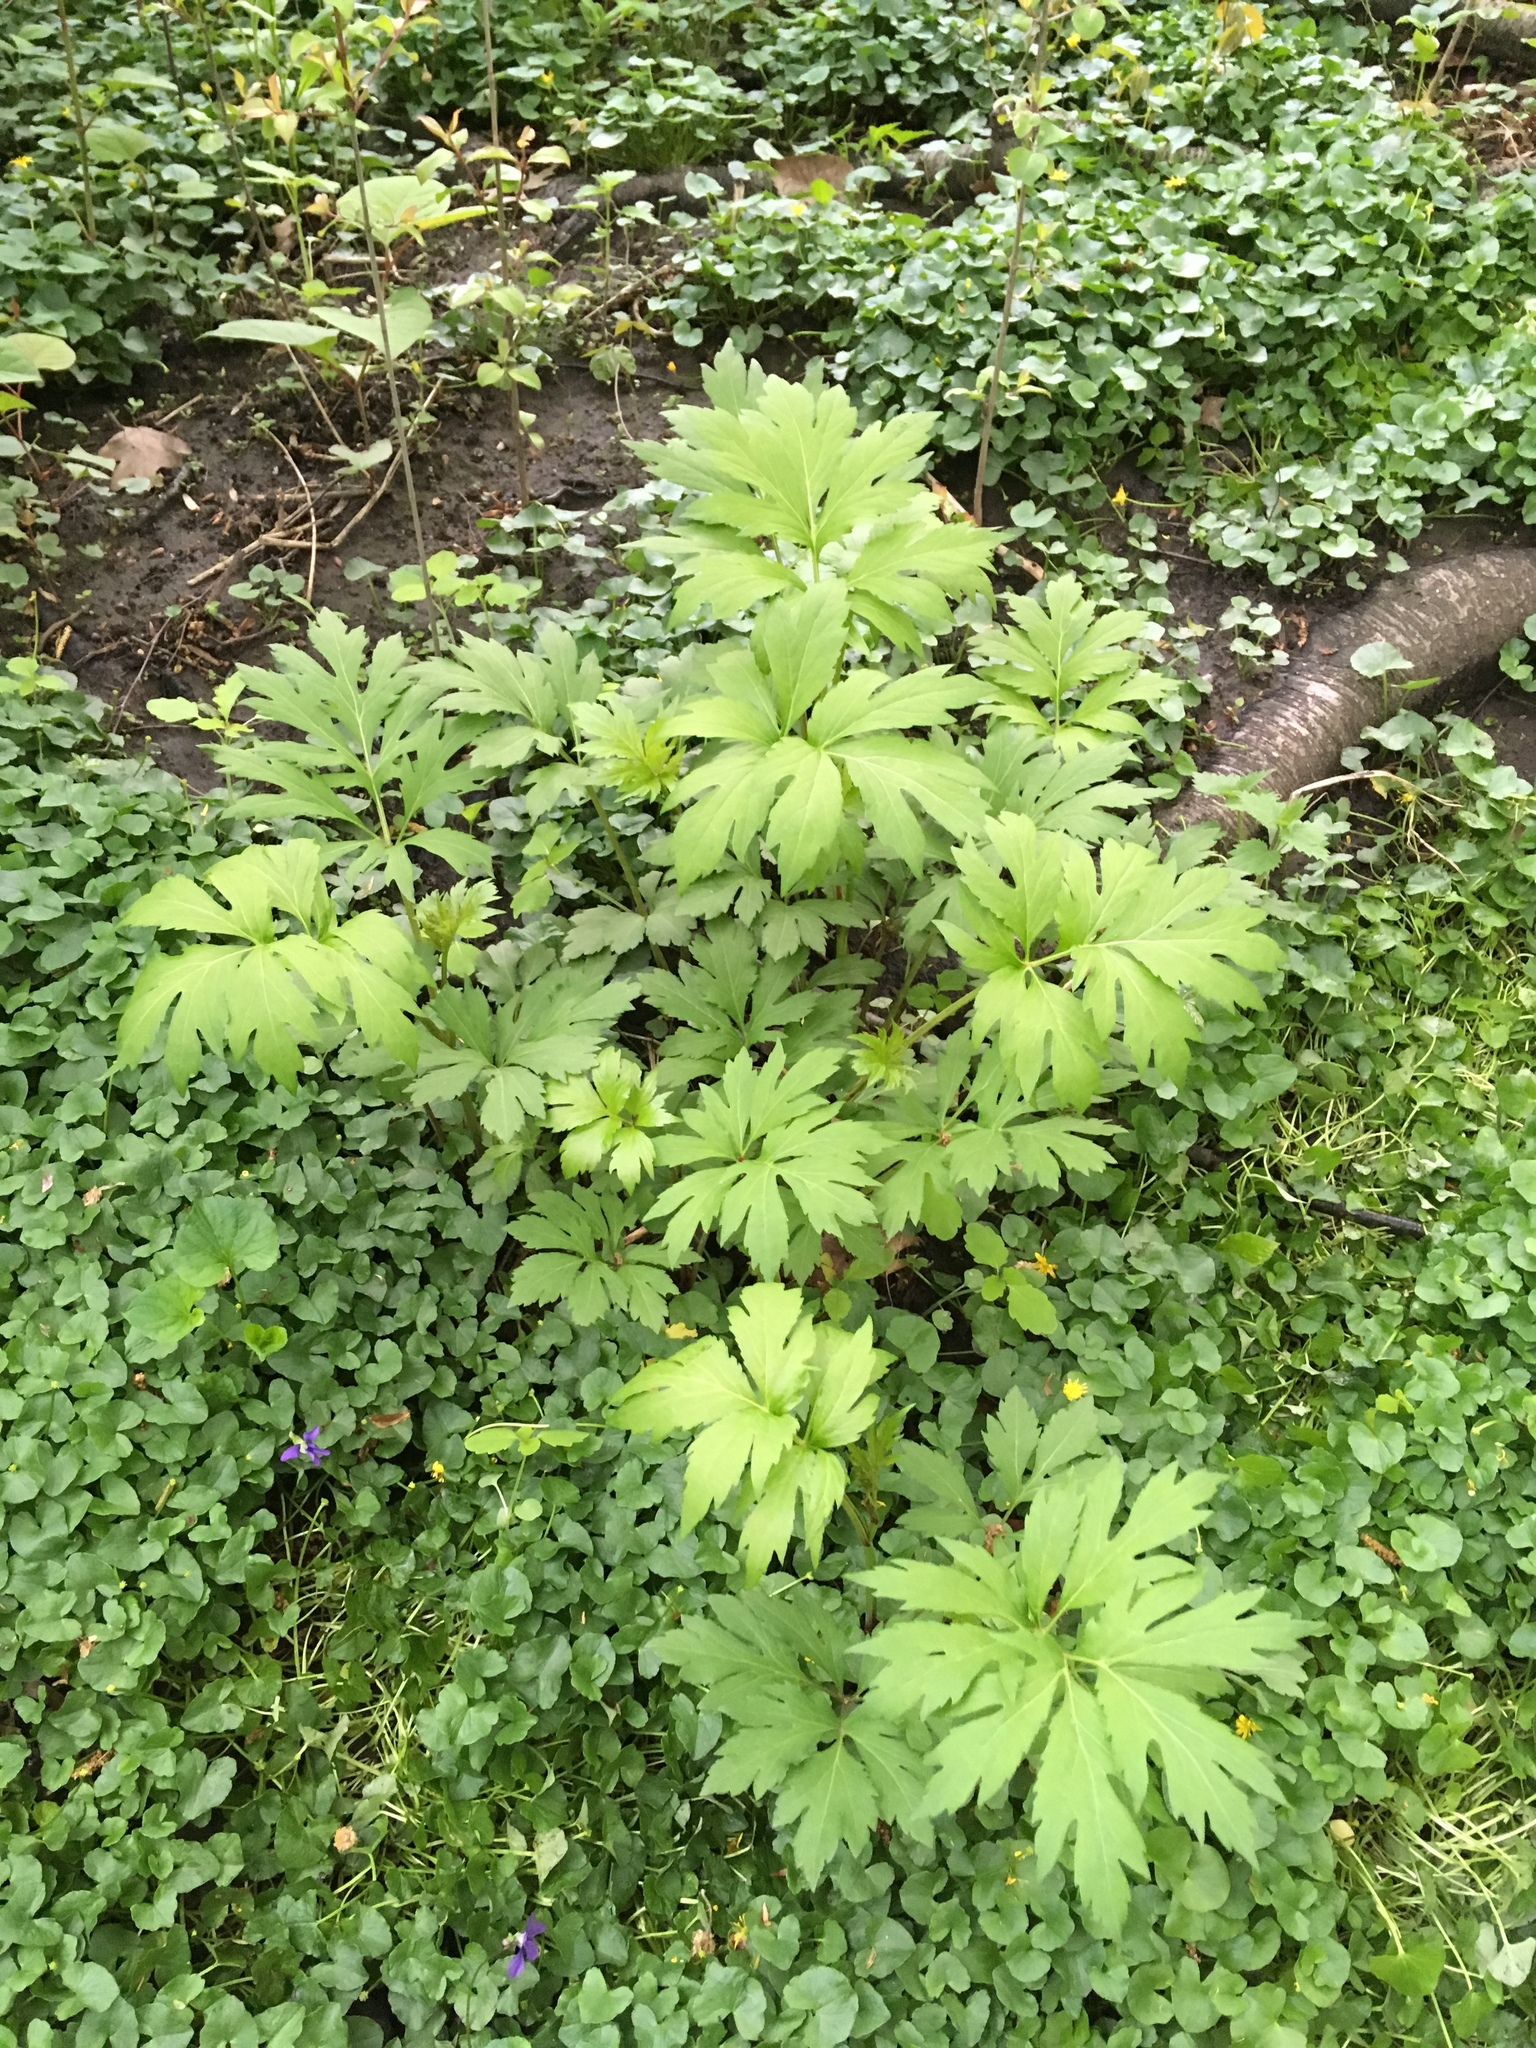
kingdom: Plantae
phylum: Tracheophyta
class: Magnoliopsida
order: Asterales
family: Asteraceae
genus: Rudbeckia
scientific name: Rudbeckia laciniata
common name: Coneflower
